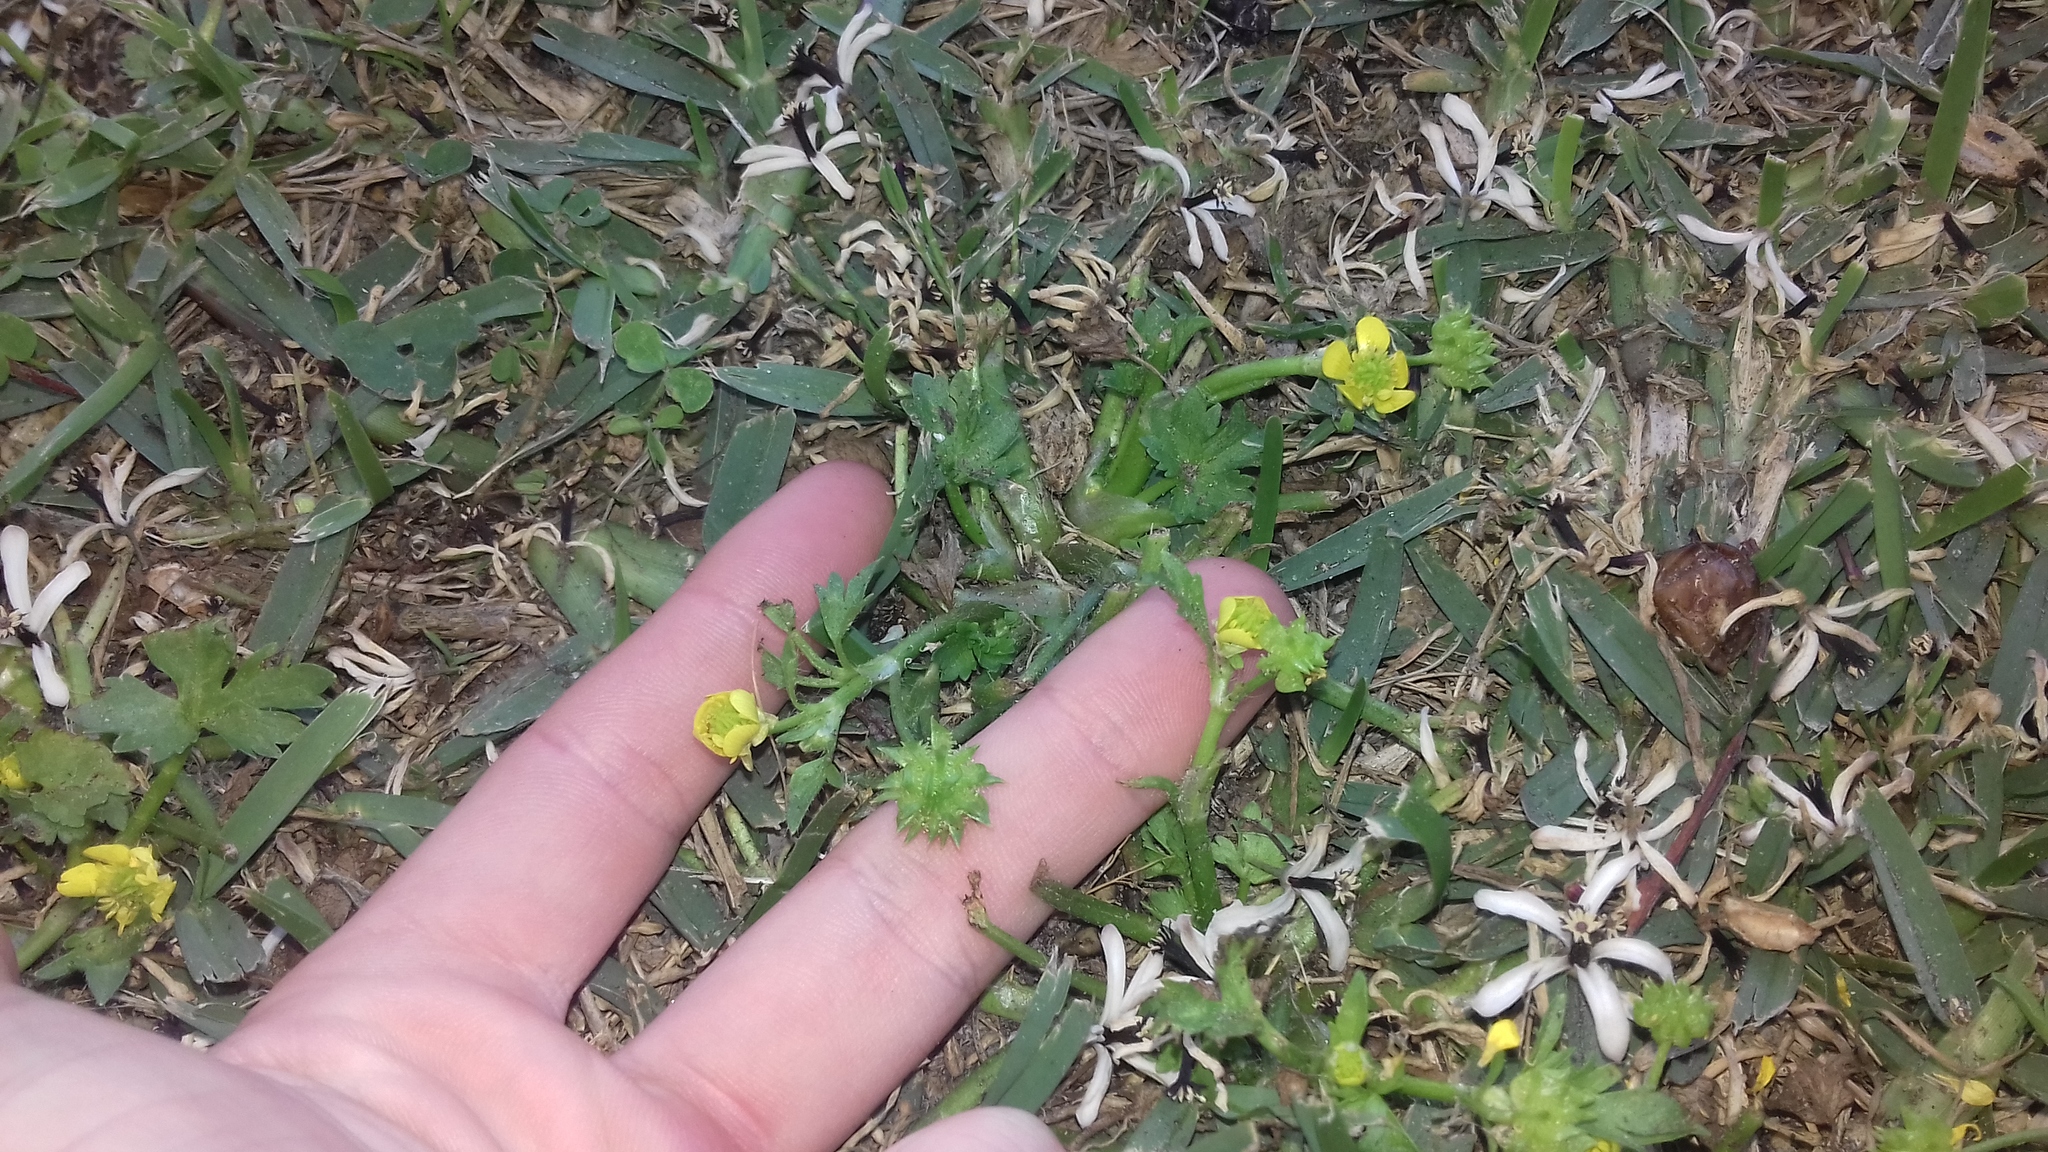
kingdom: Plantae
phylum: Tracheophyta
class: Magnoliopsida
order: Ranunculales
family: Ranunculaceae
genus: Ranunculus
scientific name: Ranunculus muricatus
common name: Rough-fruited buttercup
